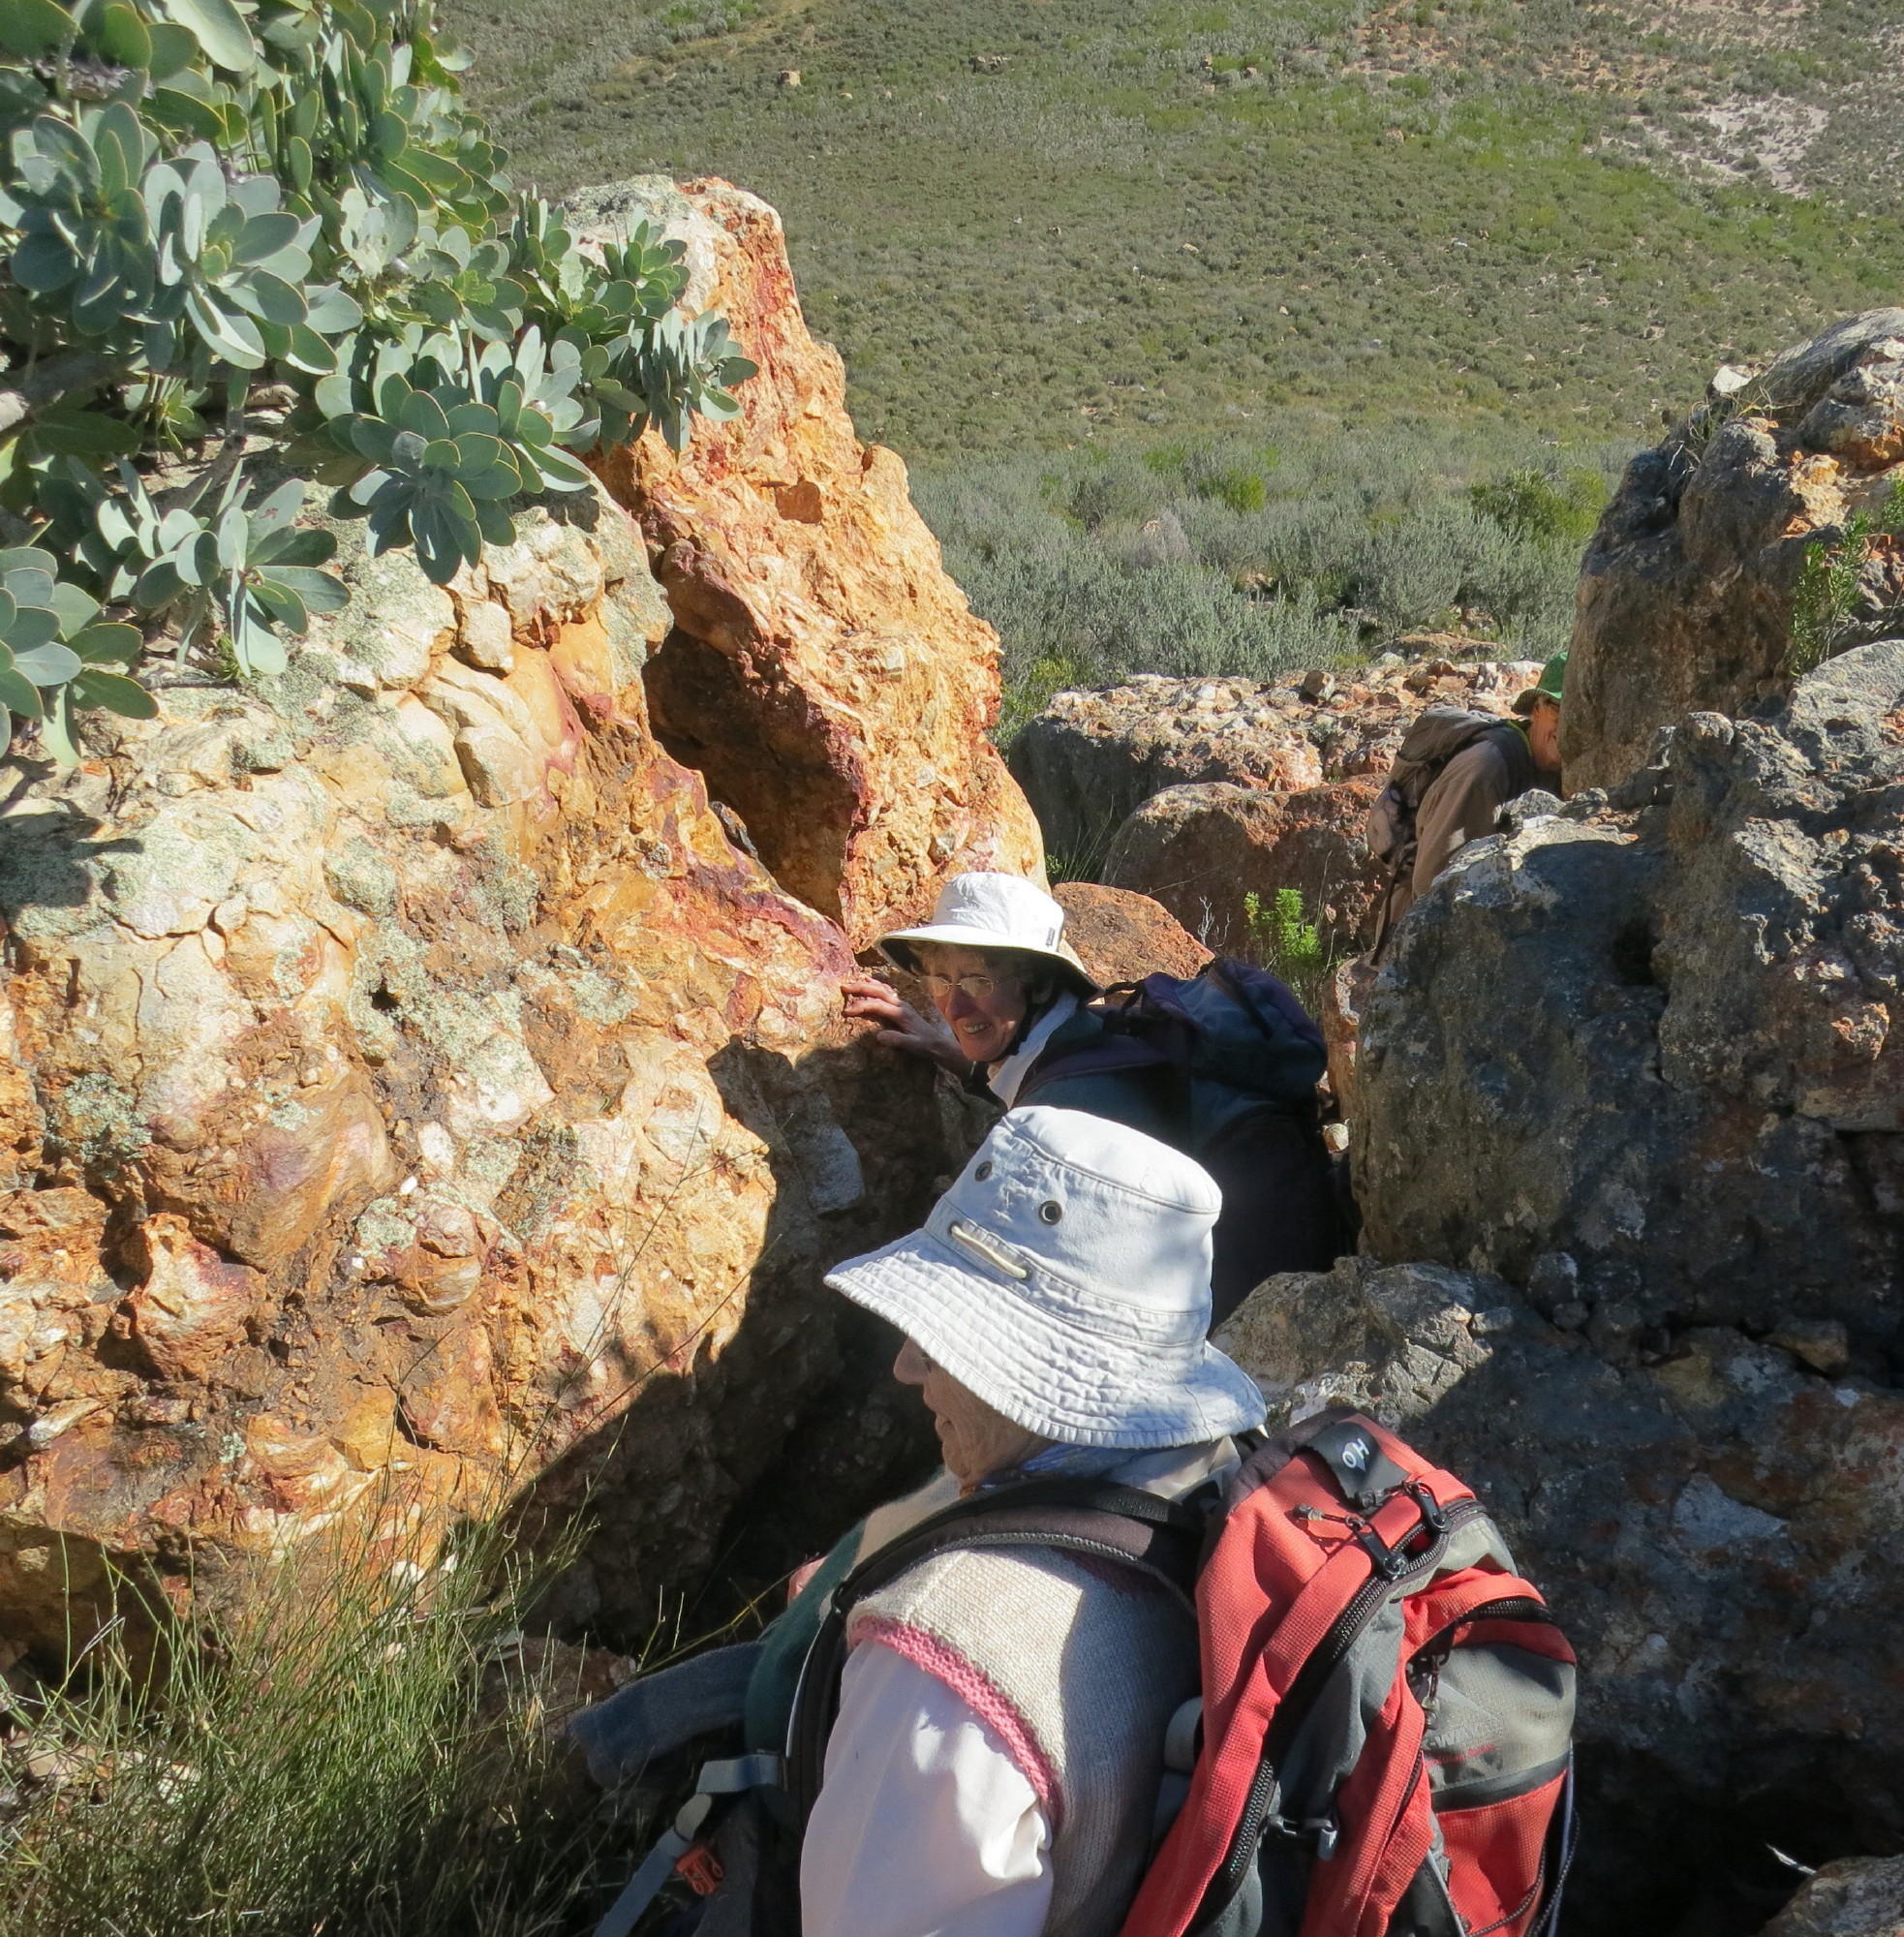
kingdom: Plantae
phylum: Tracheophyta
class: Magnoliopsida
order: Proteales
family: Proteaceae
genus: Protea
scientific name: Protea nitida
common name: Tree protea
